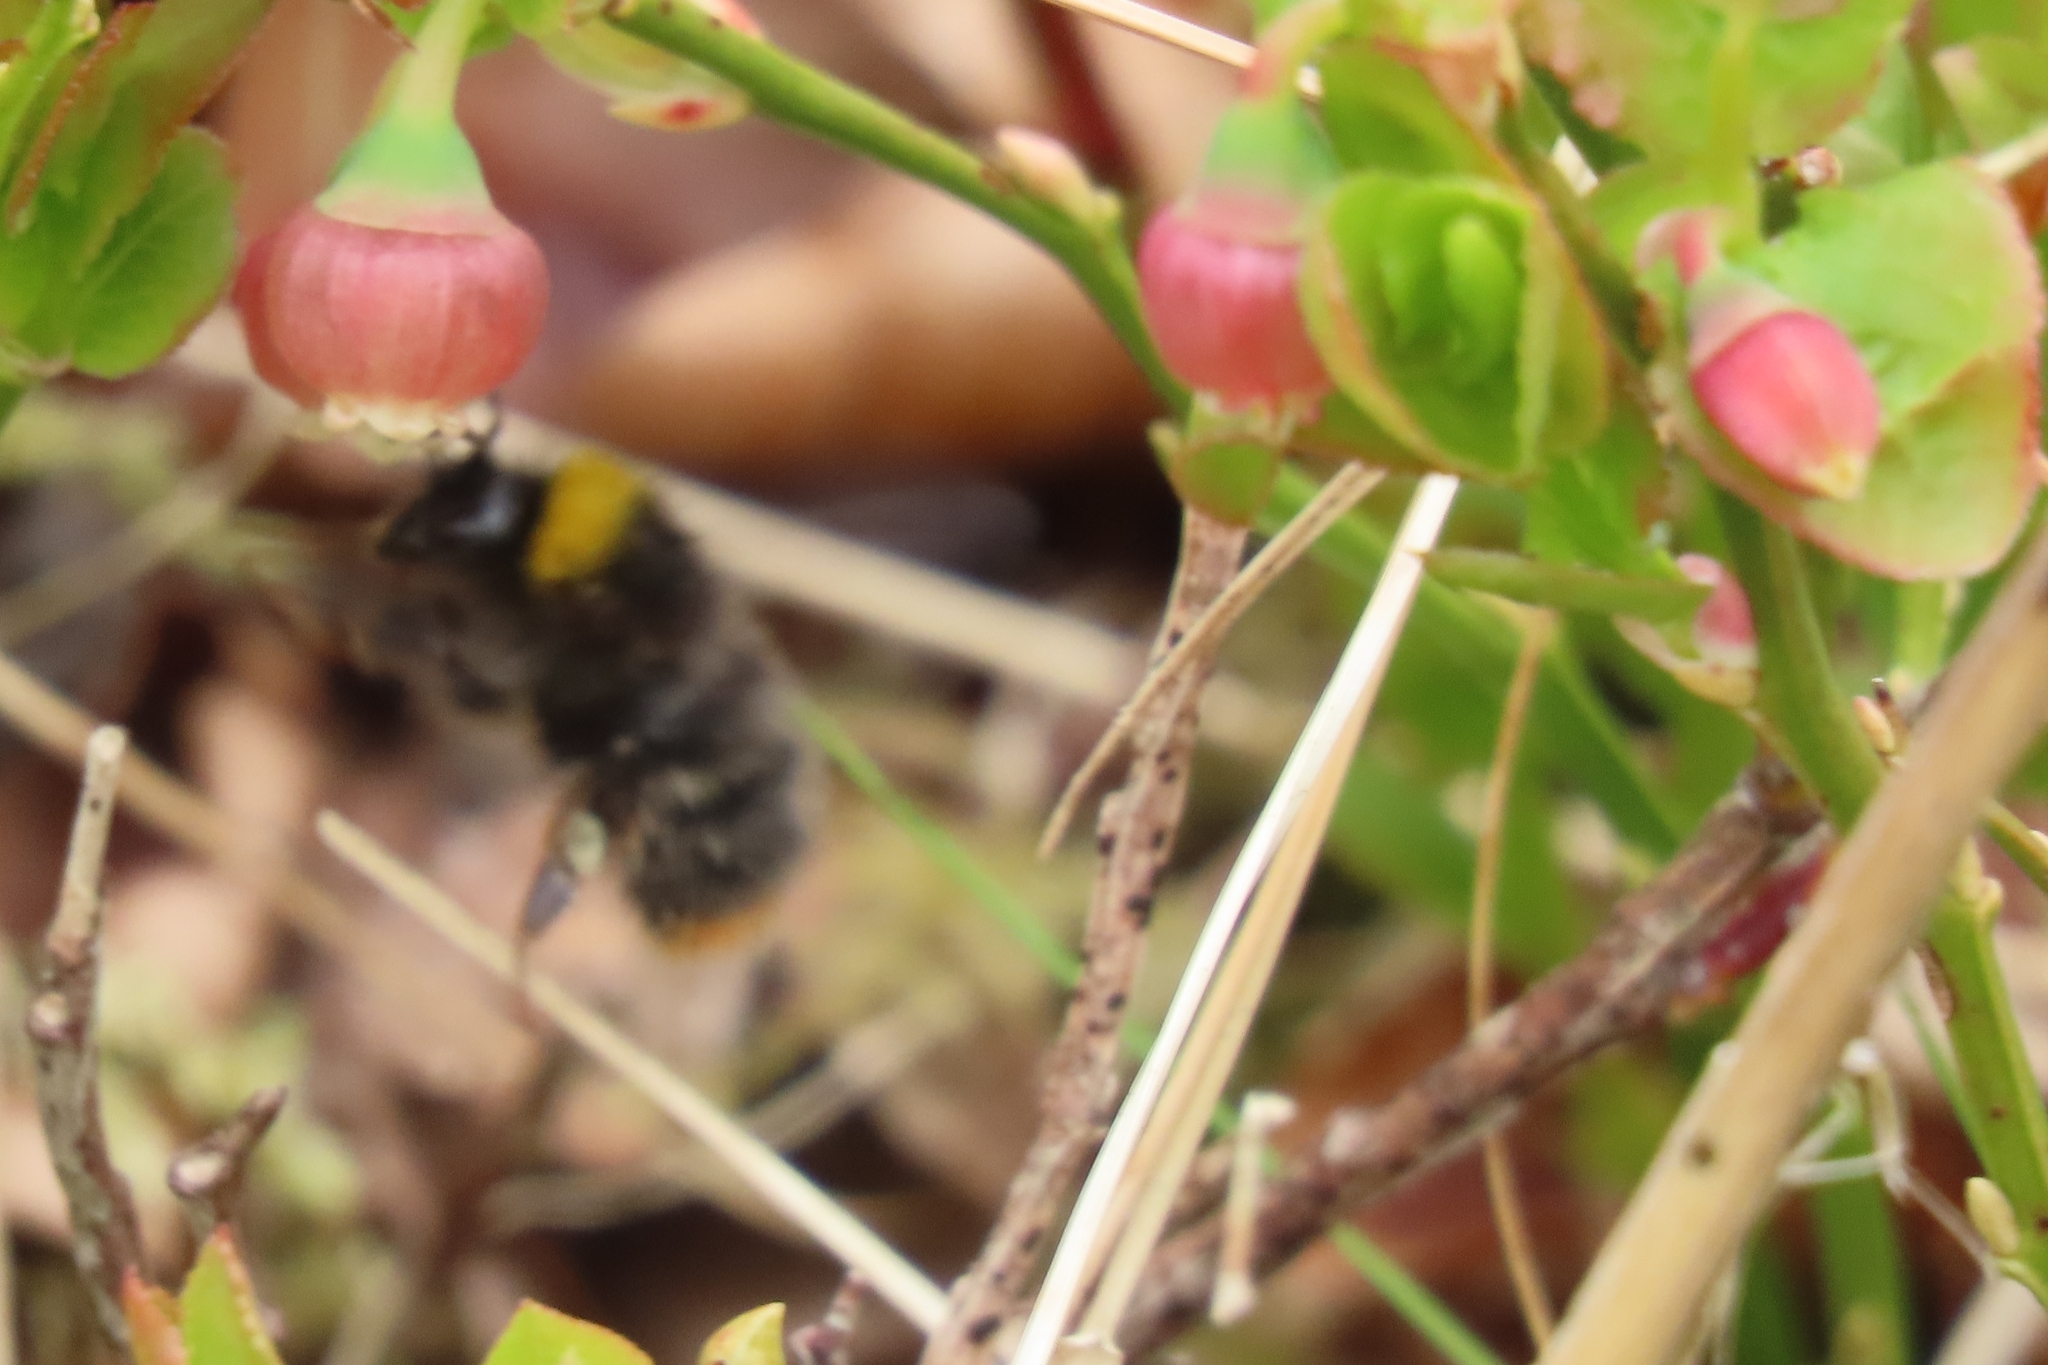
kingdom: Animalia
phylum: Arthropoda
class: Insecta
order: Hymenoptera
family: Apidae
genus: Bombus
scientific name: Bombus pratorum
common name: Early humble-bee
